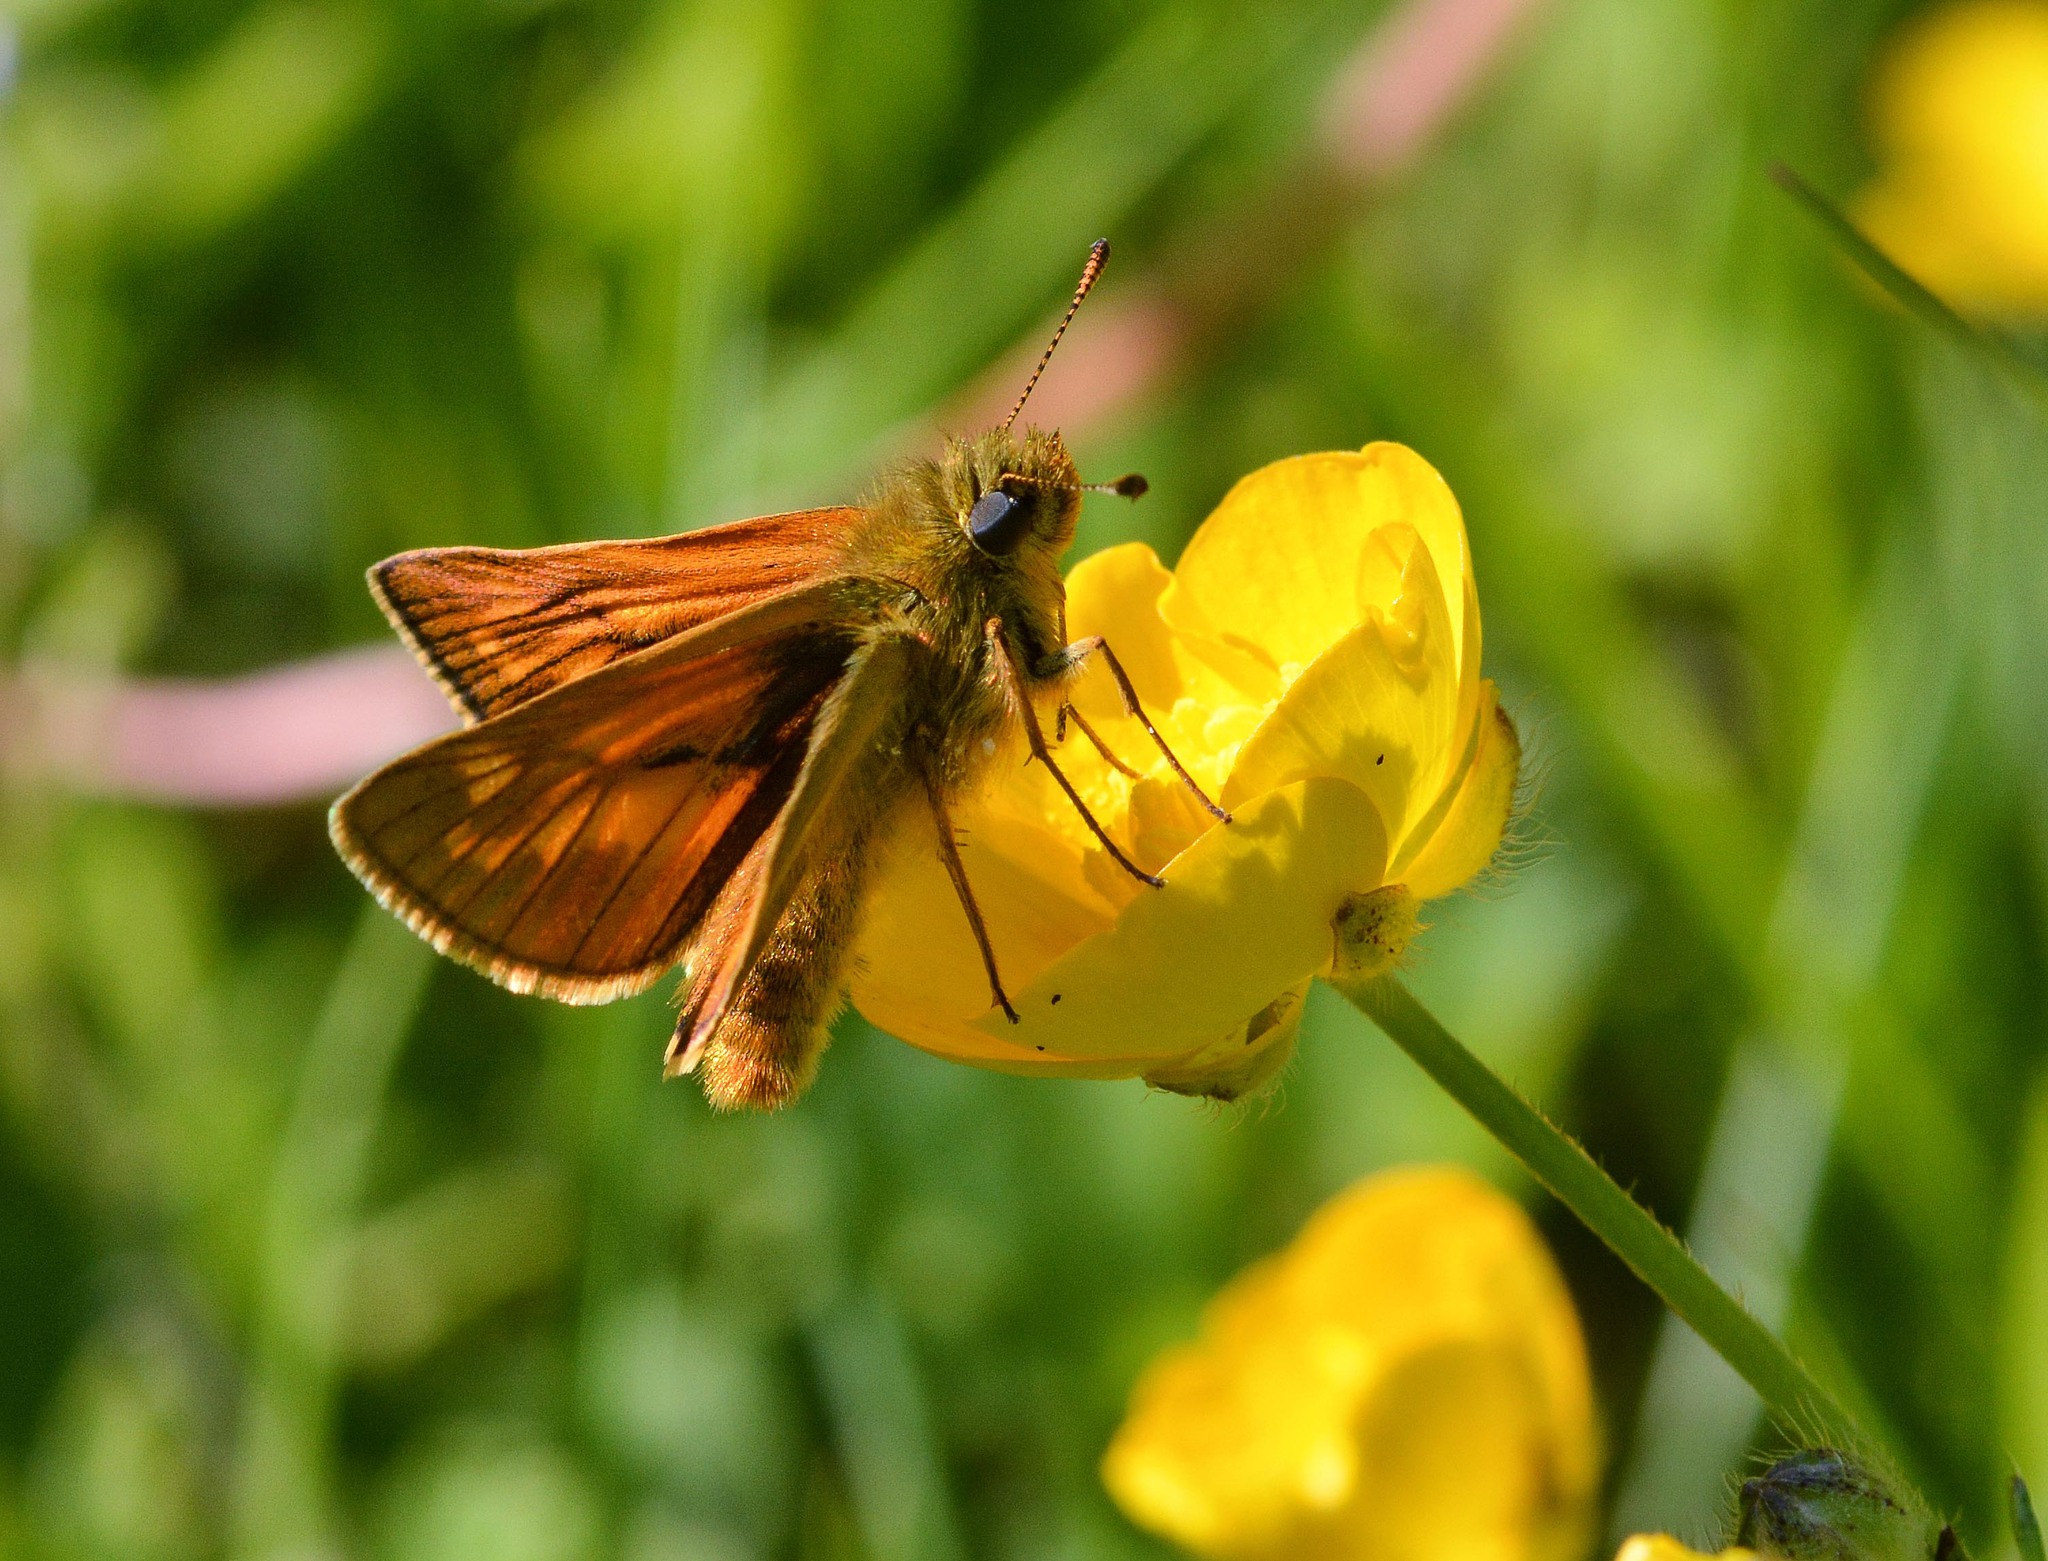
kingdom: Animalia
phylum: Arthropoda
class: Insecta
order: Lepidoptera
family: Hesperiidae
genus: Ochlodes
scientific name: Ochlodes venata
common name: Large skipper
